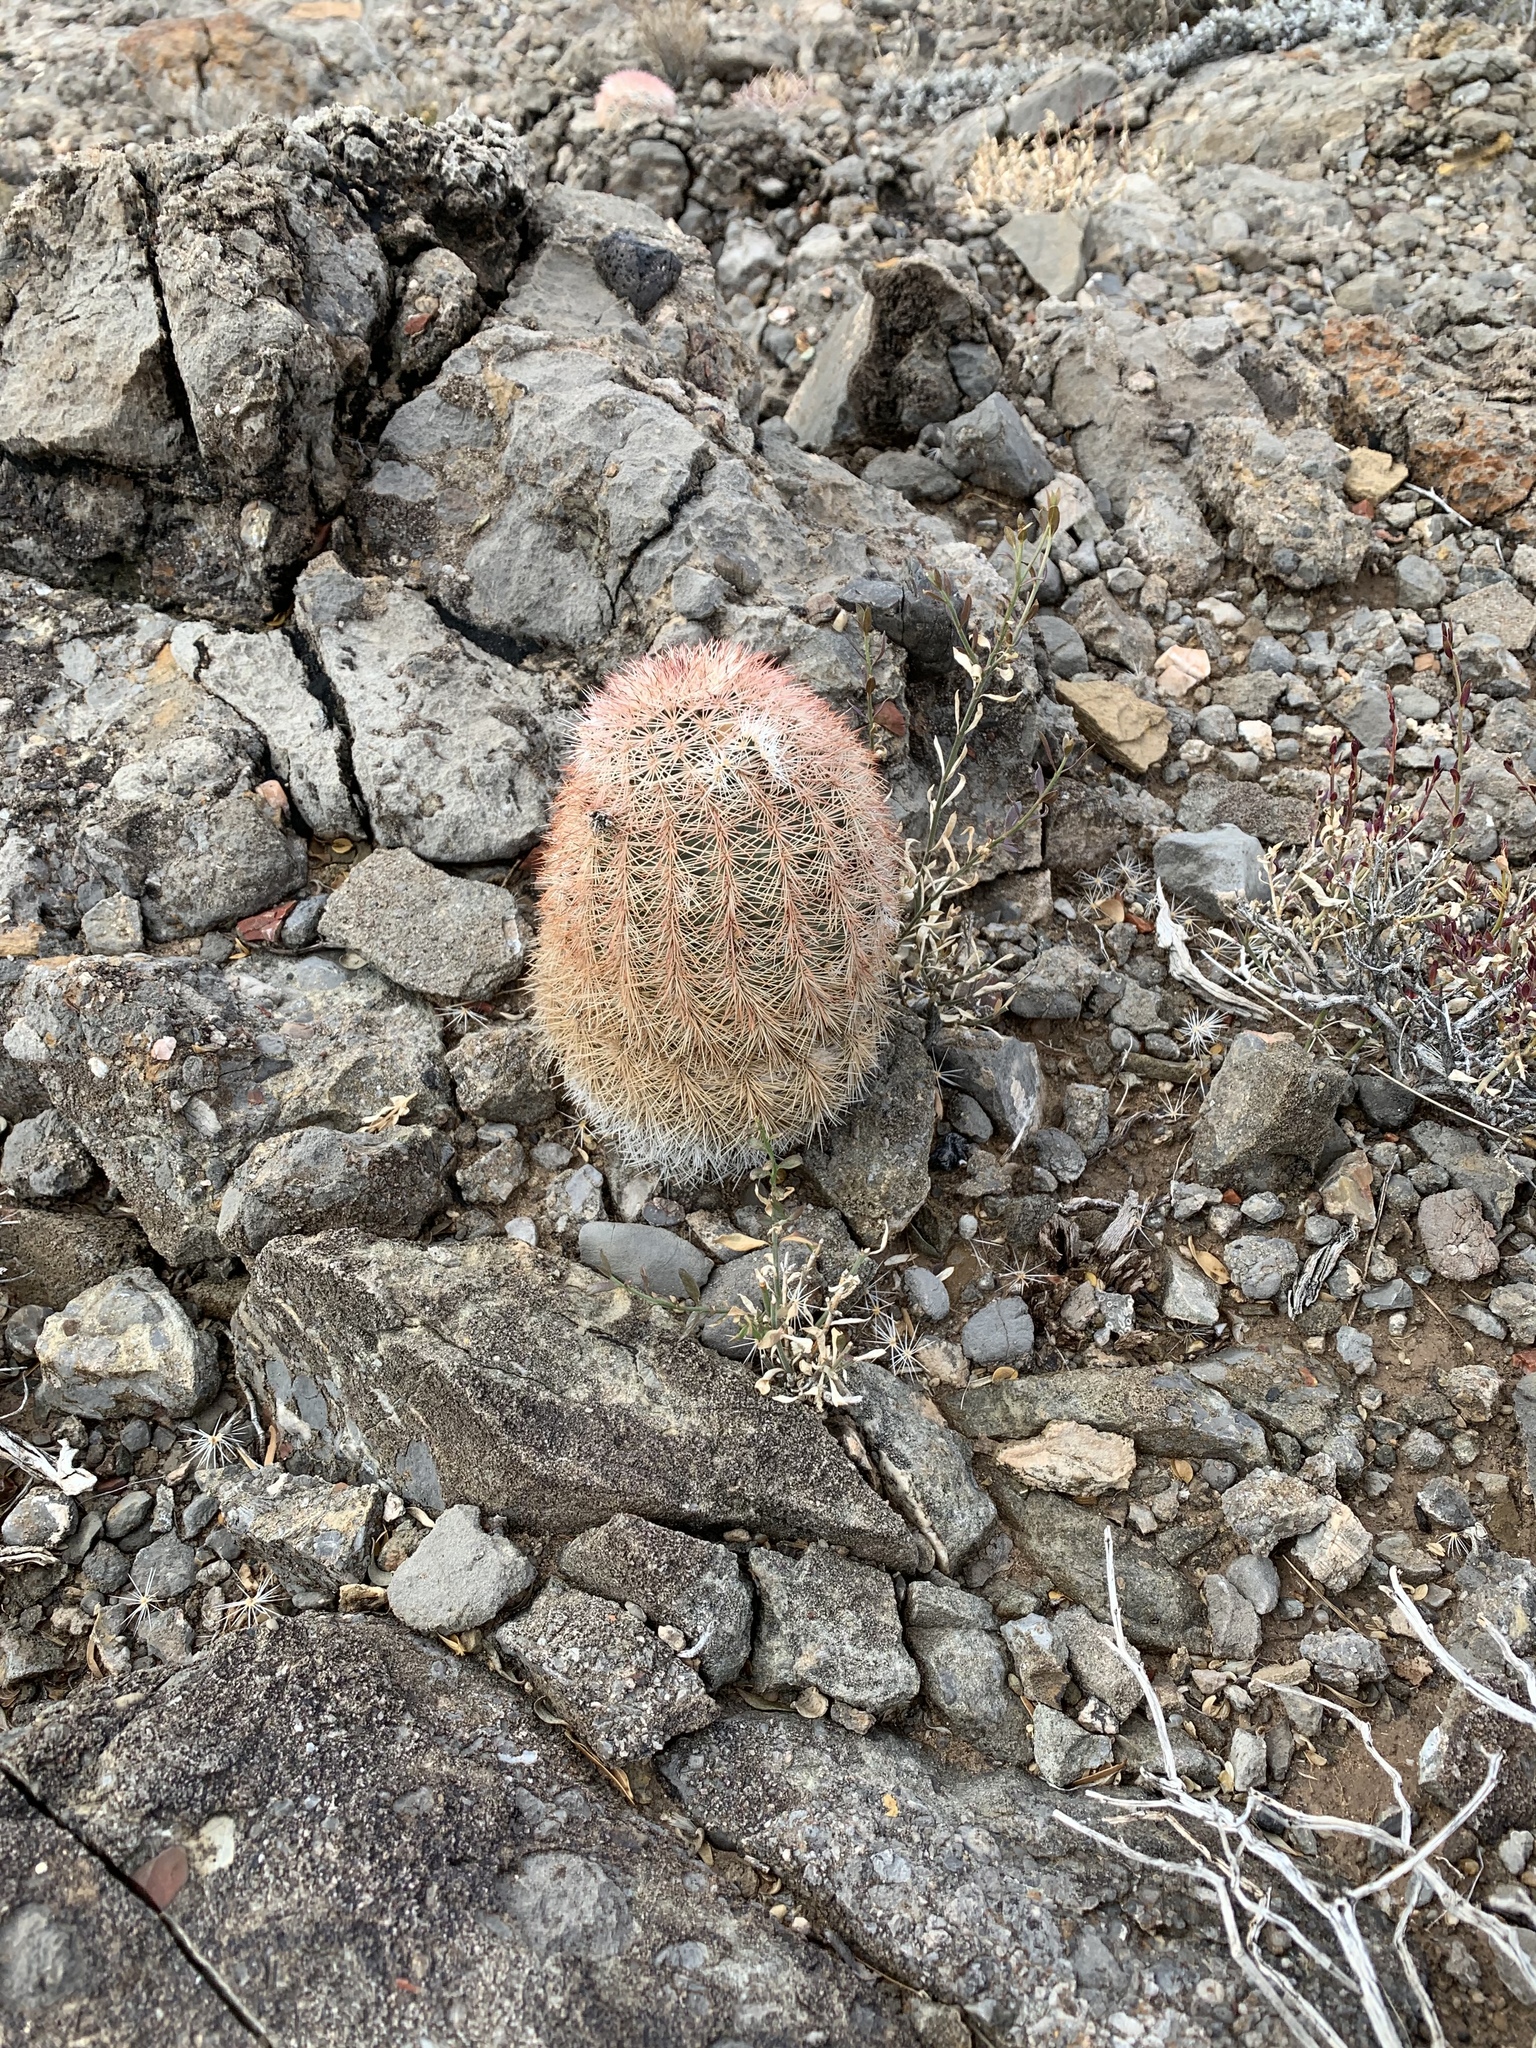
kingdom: Plantae
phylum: Tracheophyta
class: Magnoliopsida
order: Caryophyllales
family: Cactaceae
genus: Echinocereus
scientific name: Echinocereus dasyacanthus
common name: Spiny hedgehog cactus
